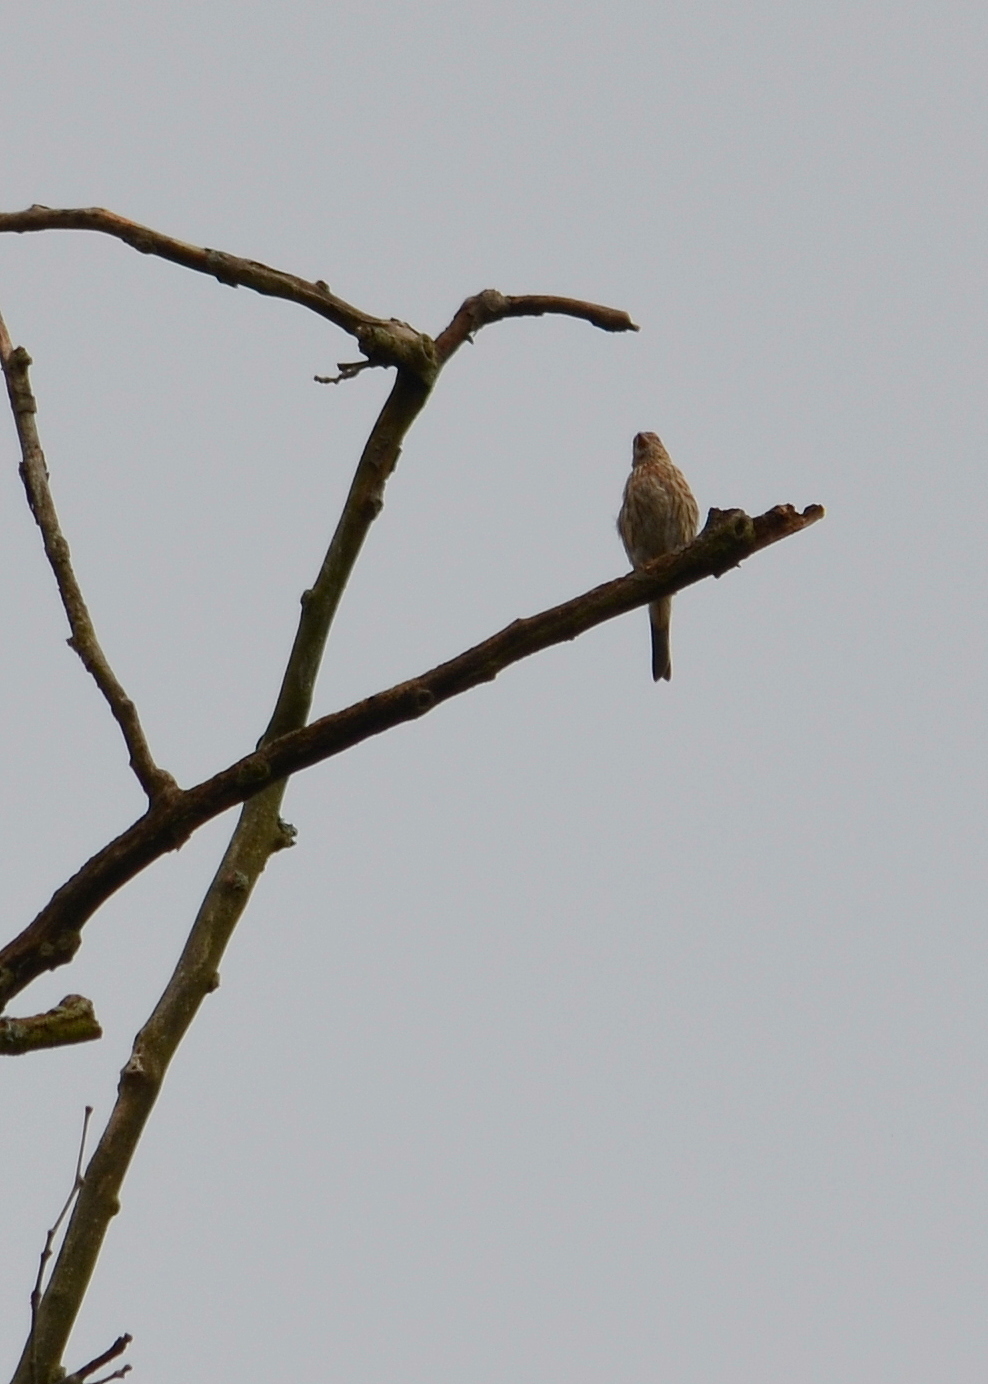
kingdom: Animalia
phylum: Chordata
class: Aves
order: Passeriformes
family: Fringillidae
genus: Haemorhous
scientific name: Haemorhous mexicanus
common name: House finch
